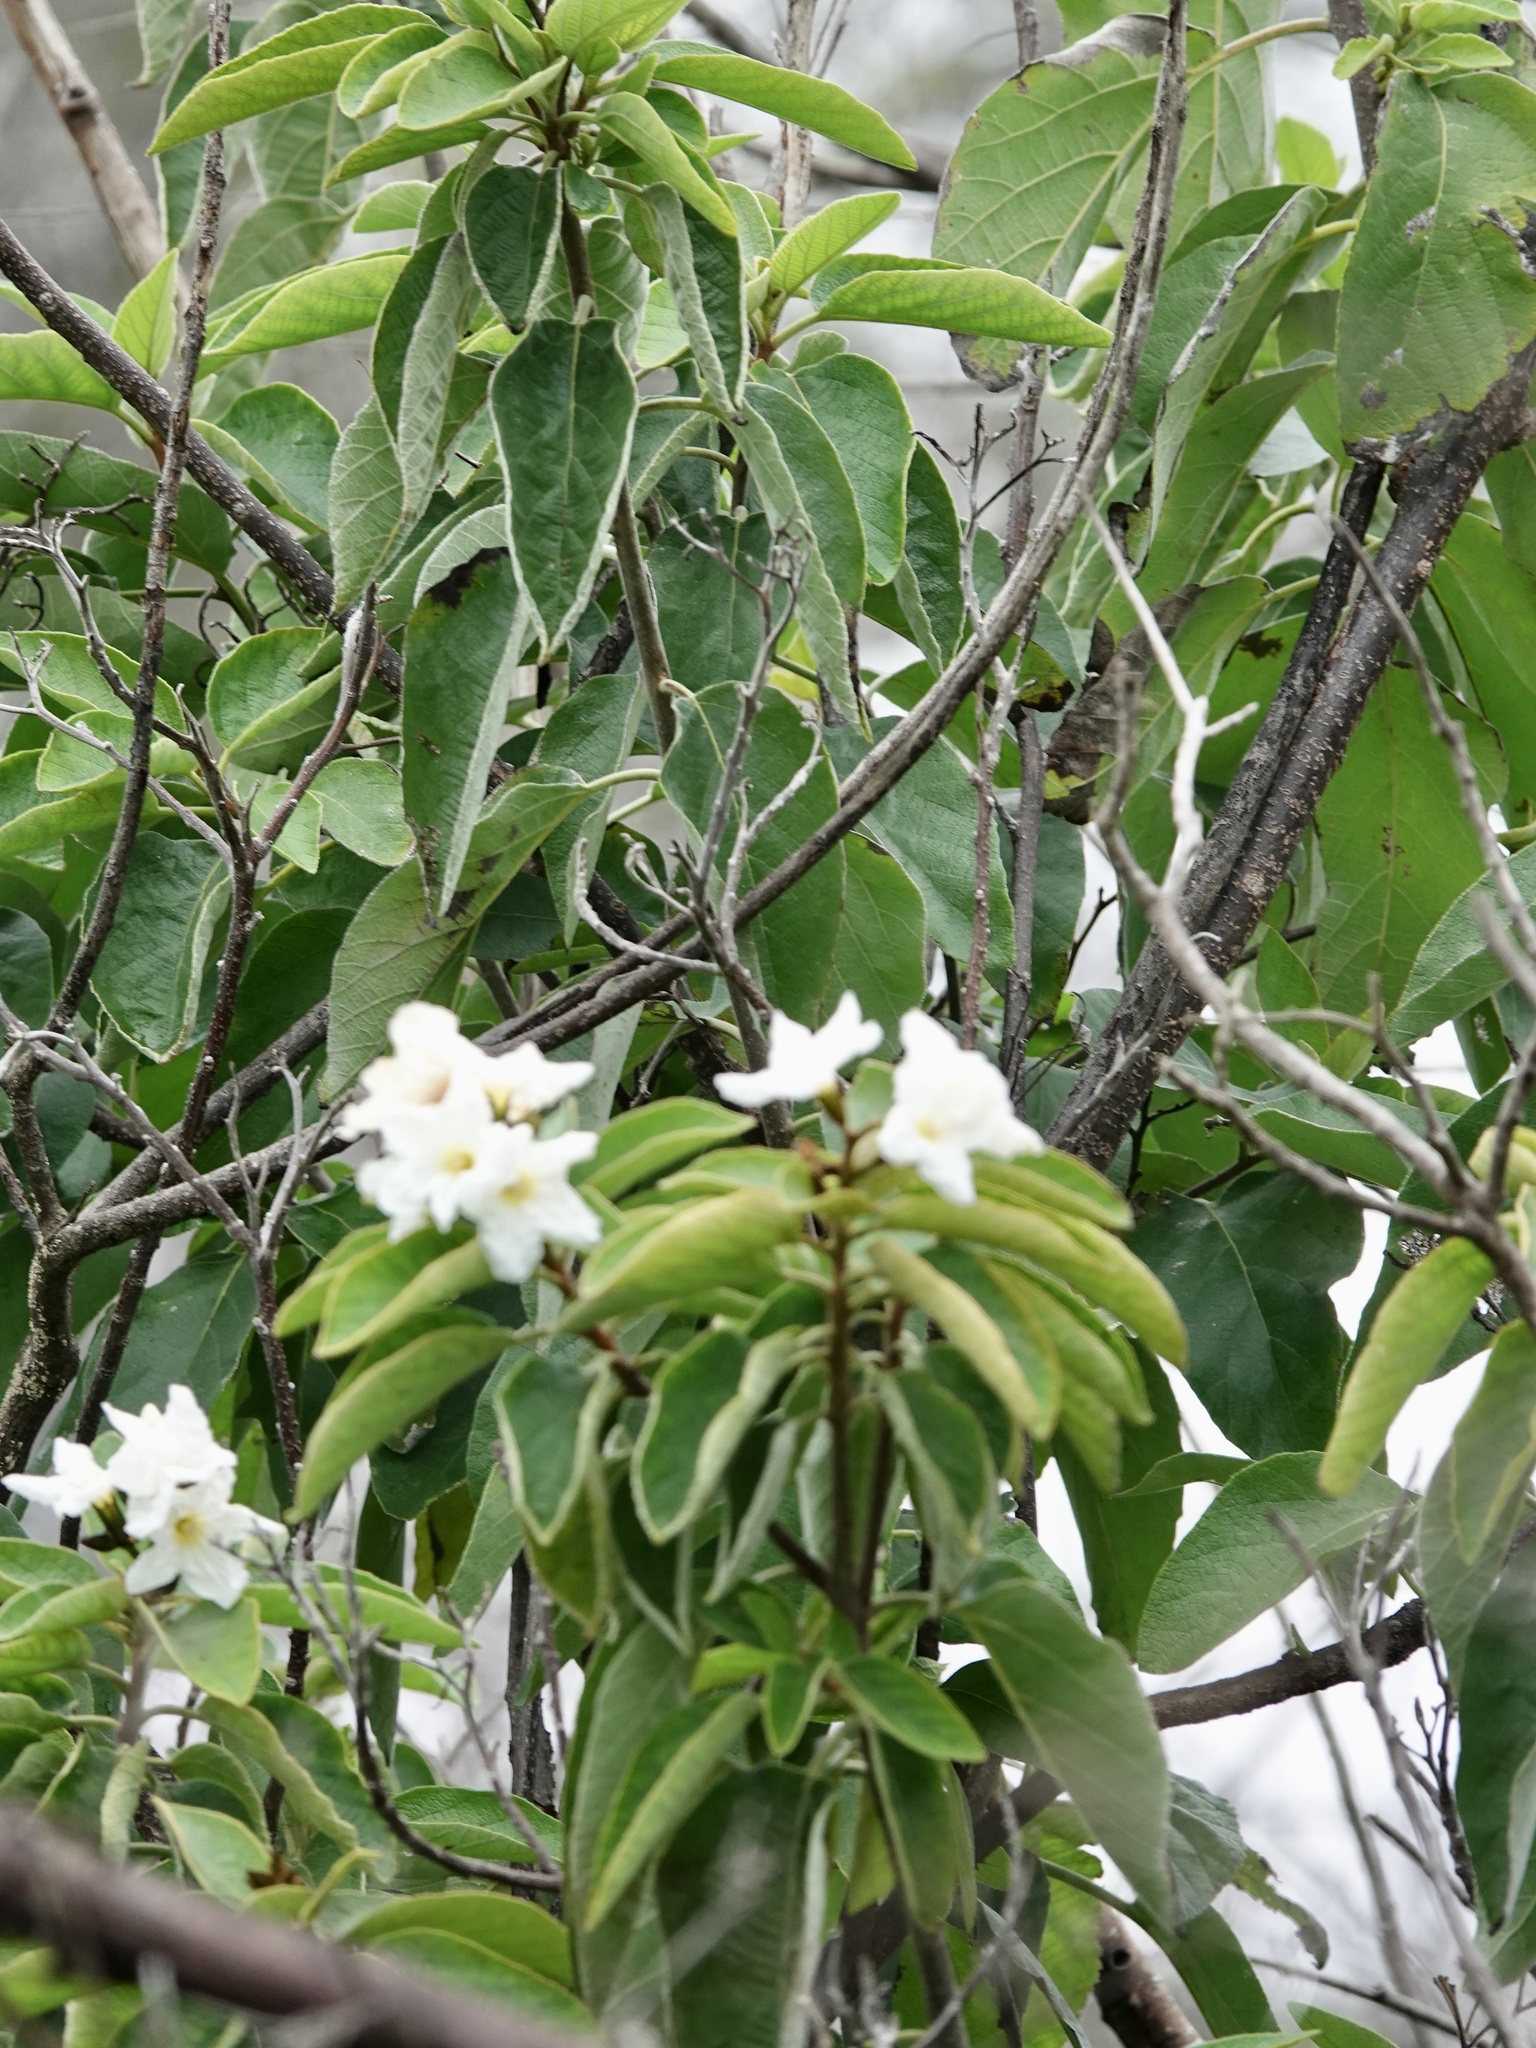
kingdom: Plantae
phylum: Tracheophyta
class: Magnoliopsida
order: Boraginales
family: Cordiaceae
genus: Cordia
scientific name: Cordia boissieri
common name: Mexican-olive
